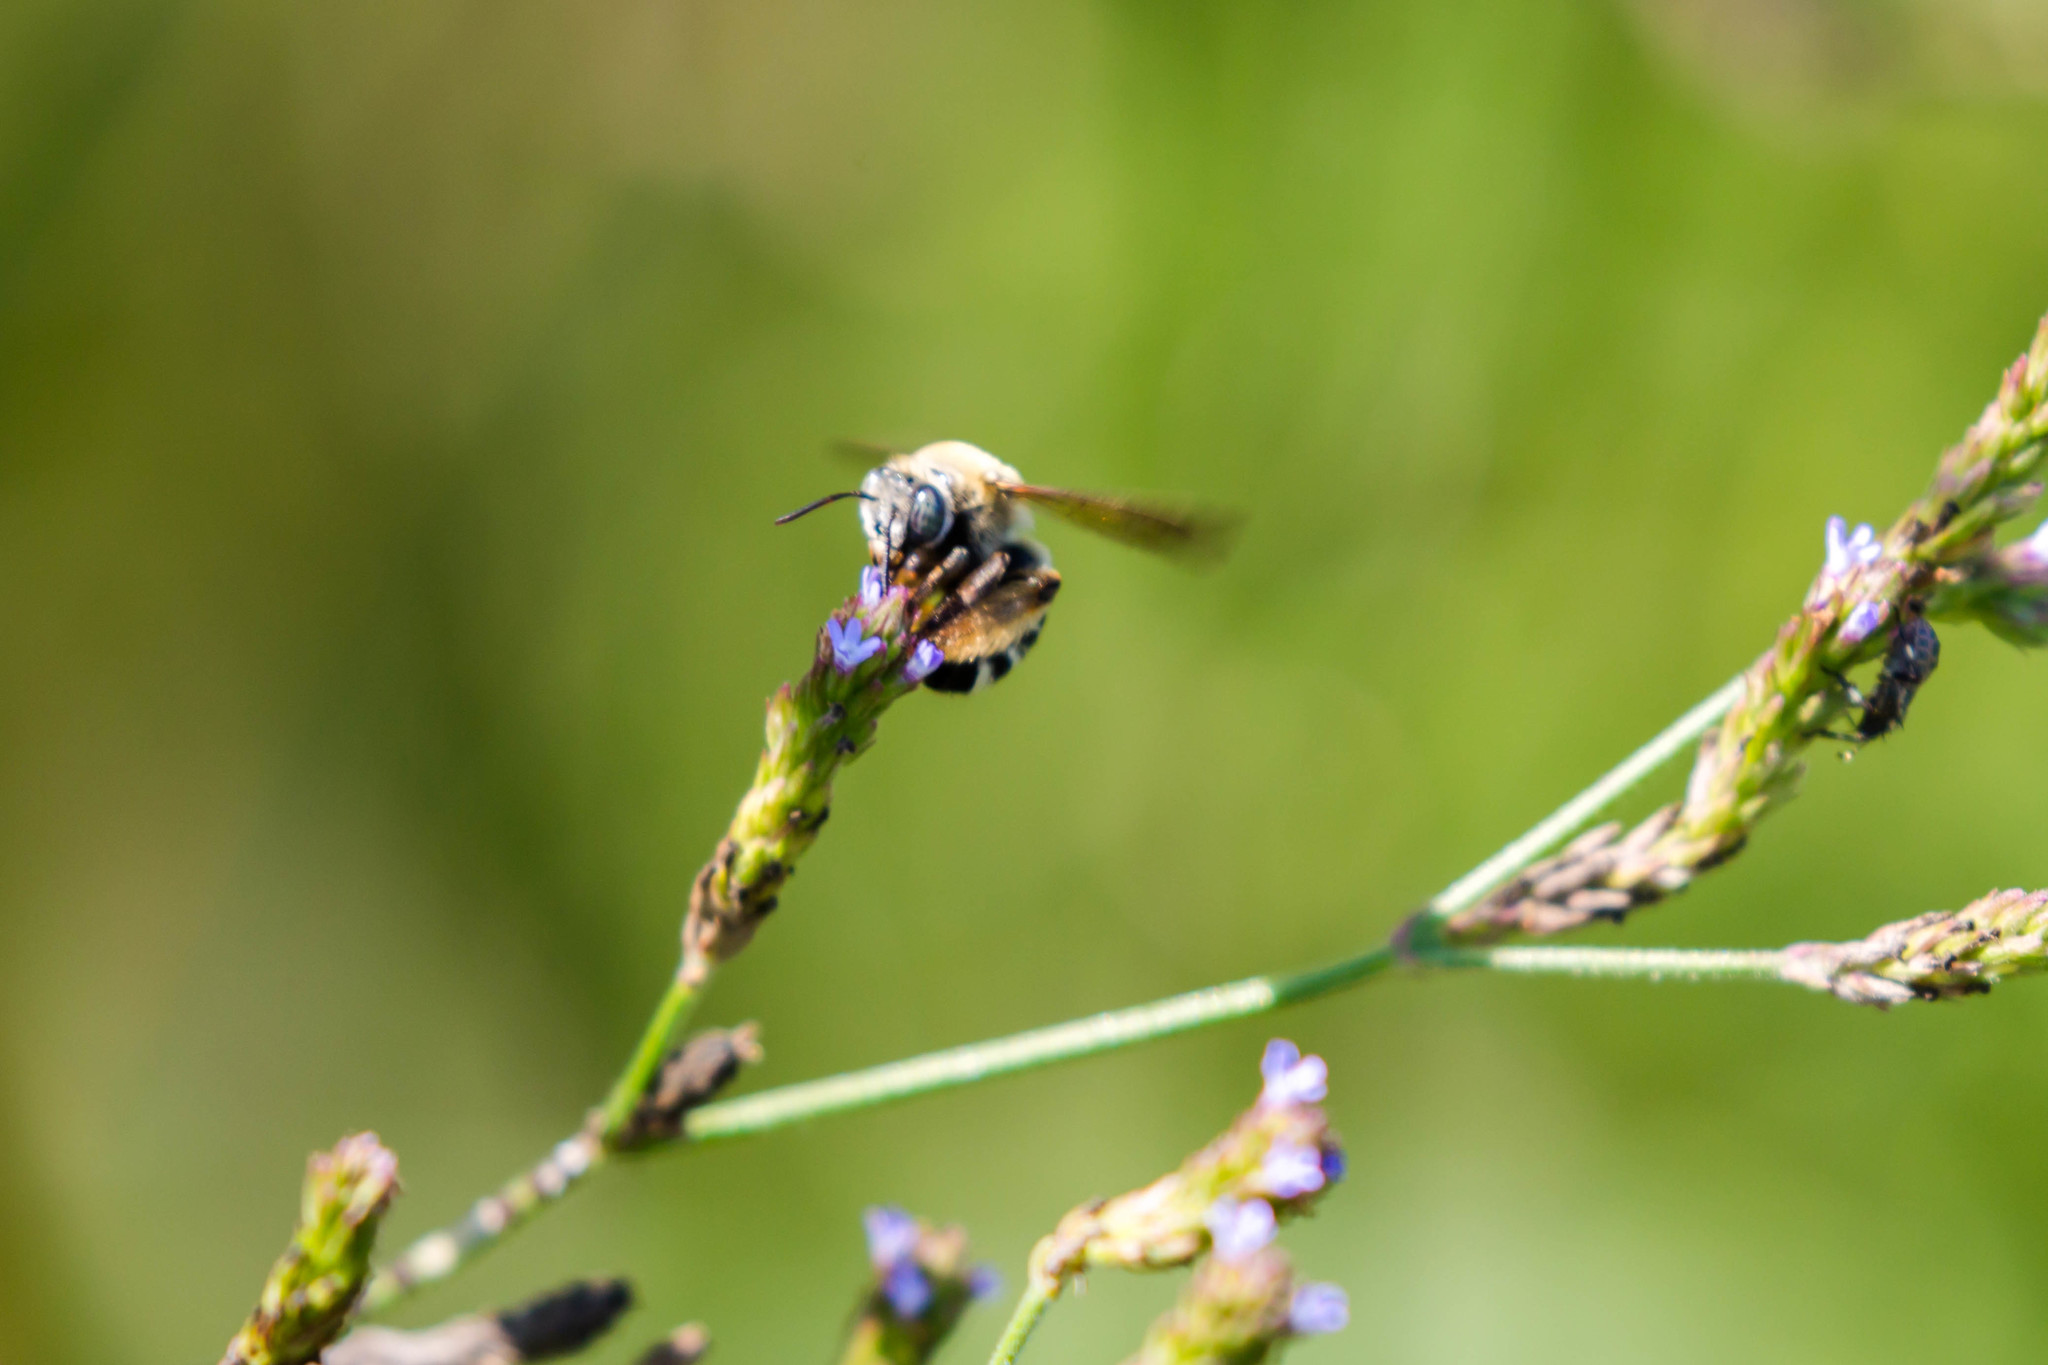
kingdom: Animalia
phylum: Arthropoda
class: Insecta
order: Hymenoptera
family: Apidae
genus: Melissodes
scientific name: Melissodes comptoides
